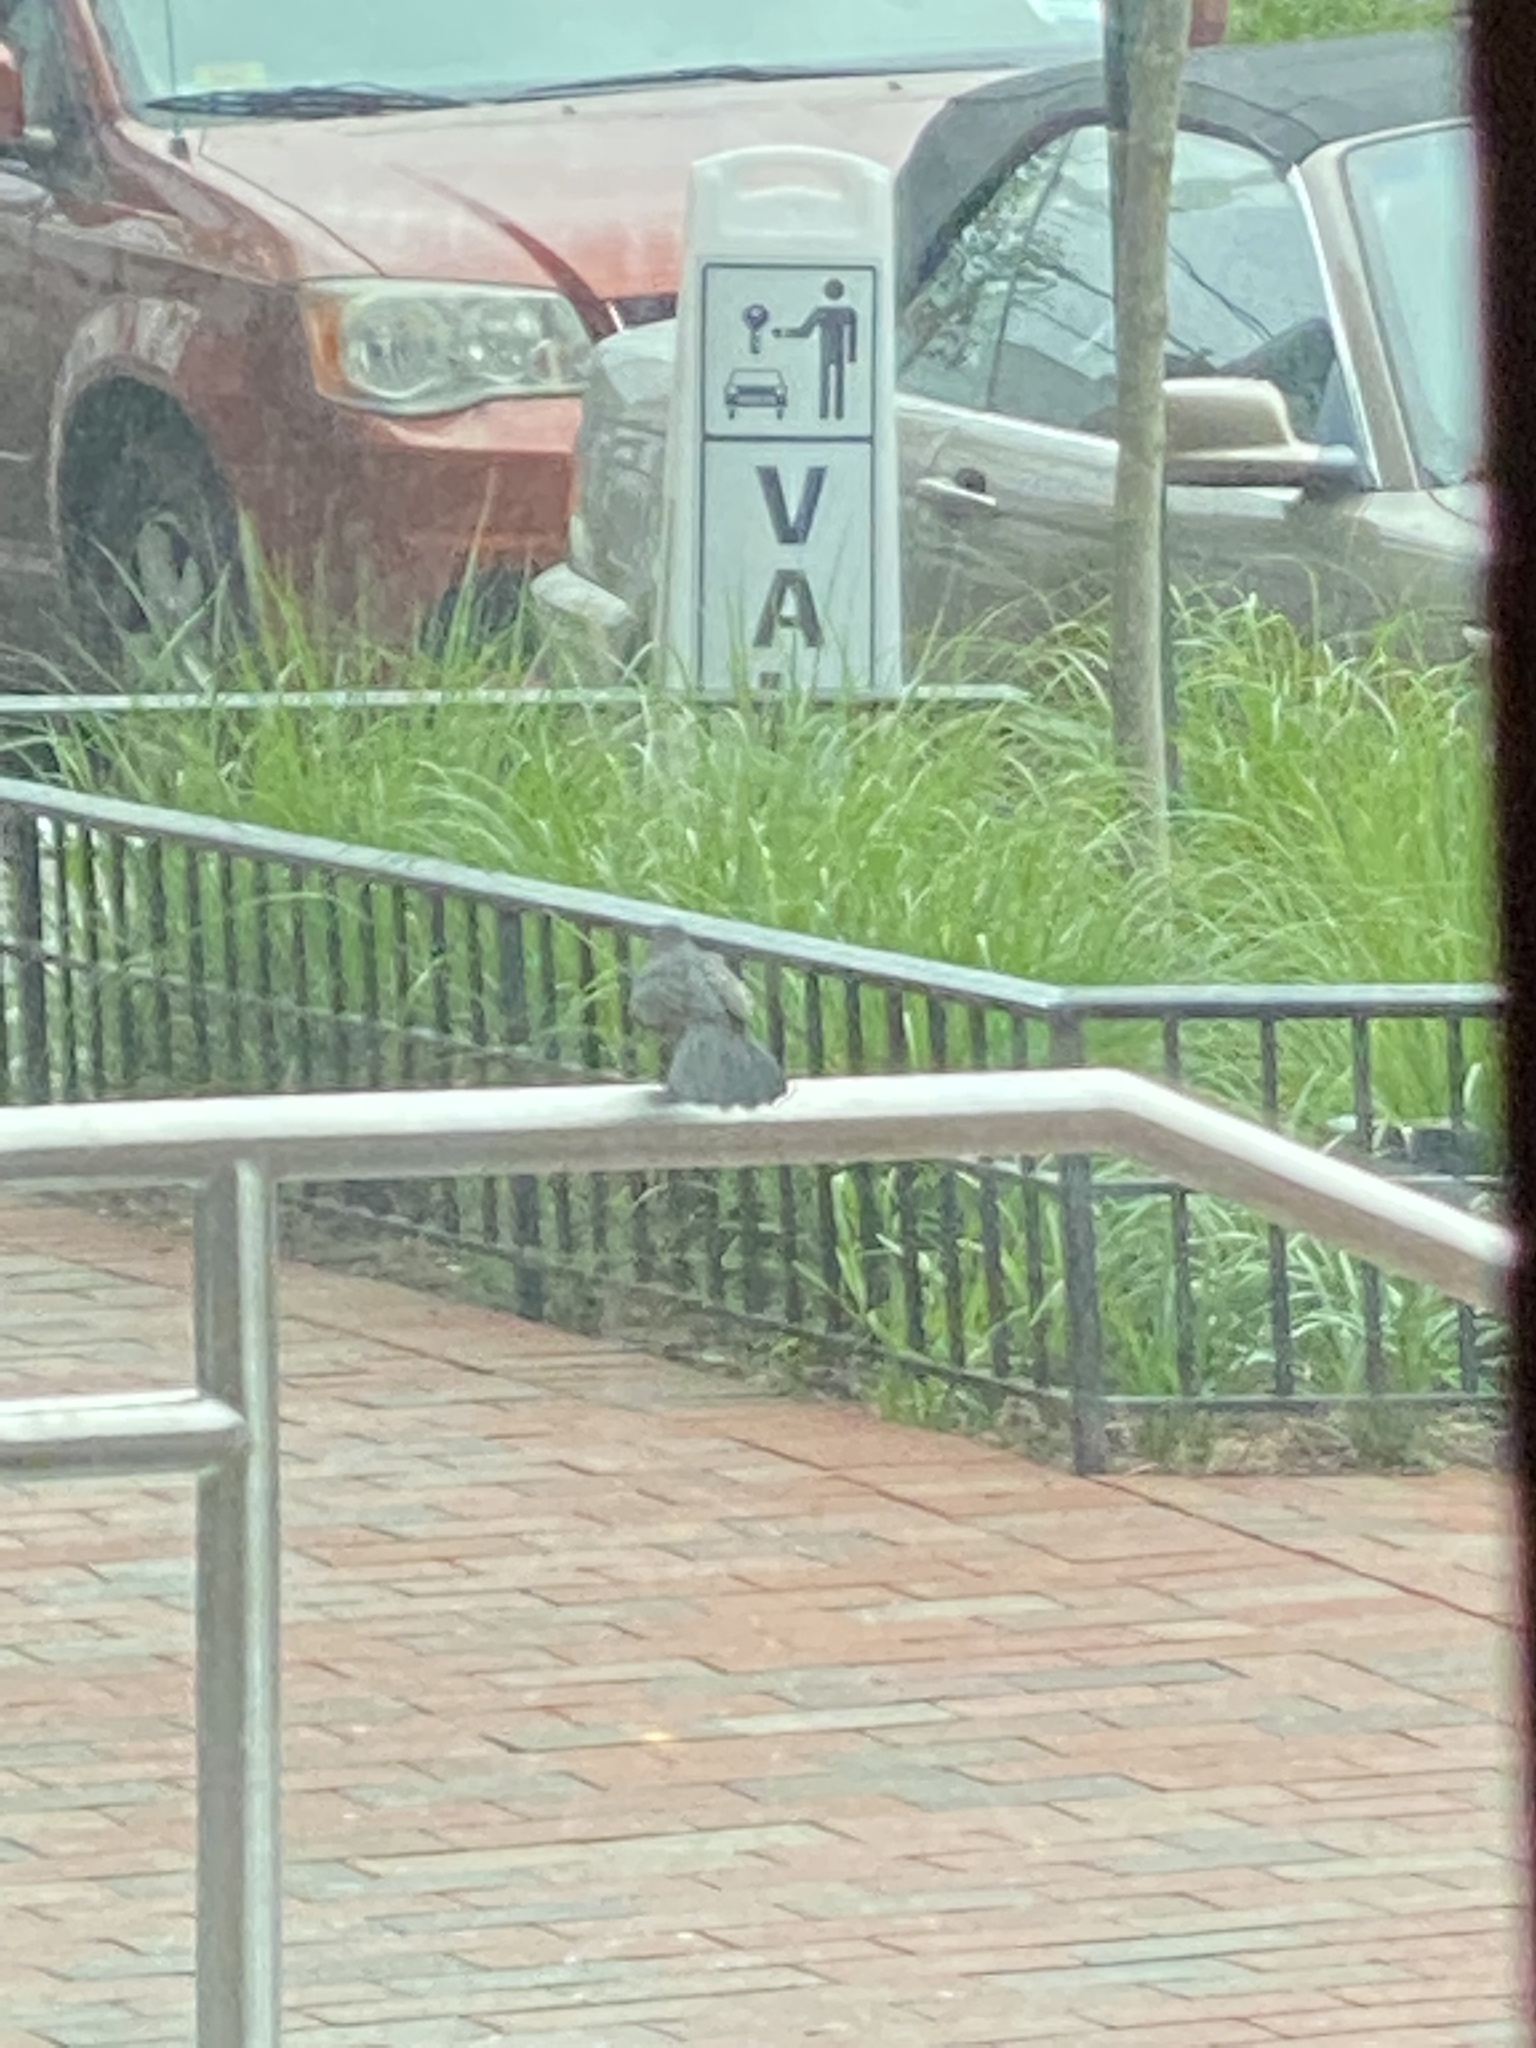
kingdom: Animalia
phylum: Chordata
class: Aves
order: Passeriformes
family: Mimidae
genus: Dumetella
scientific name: Dumetella carolinensis
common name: Gray catbird
